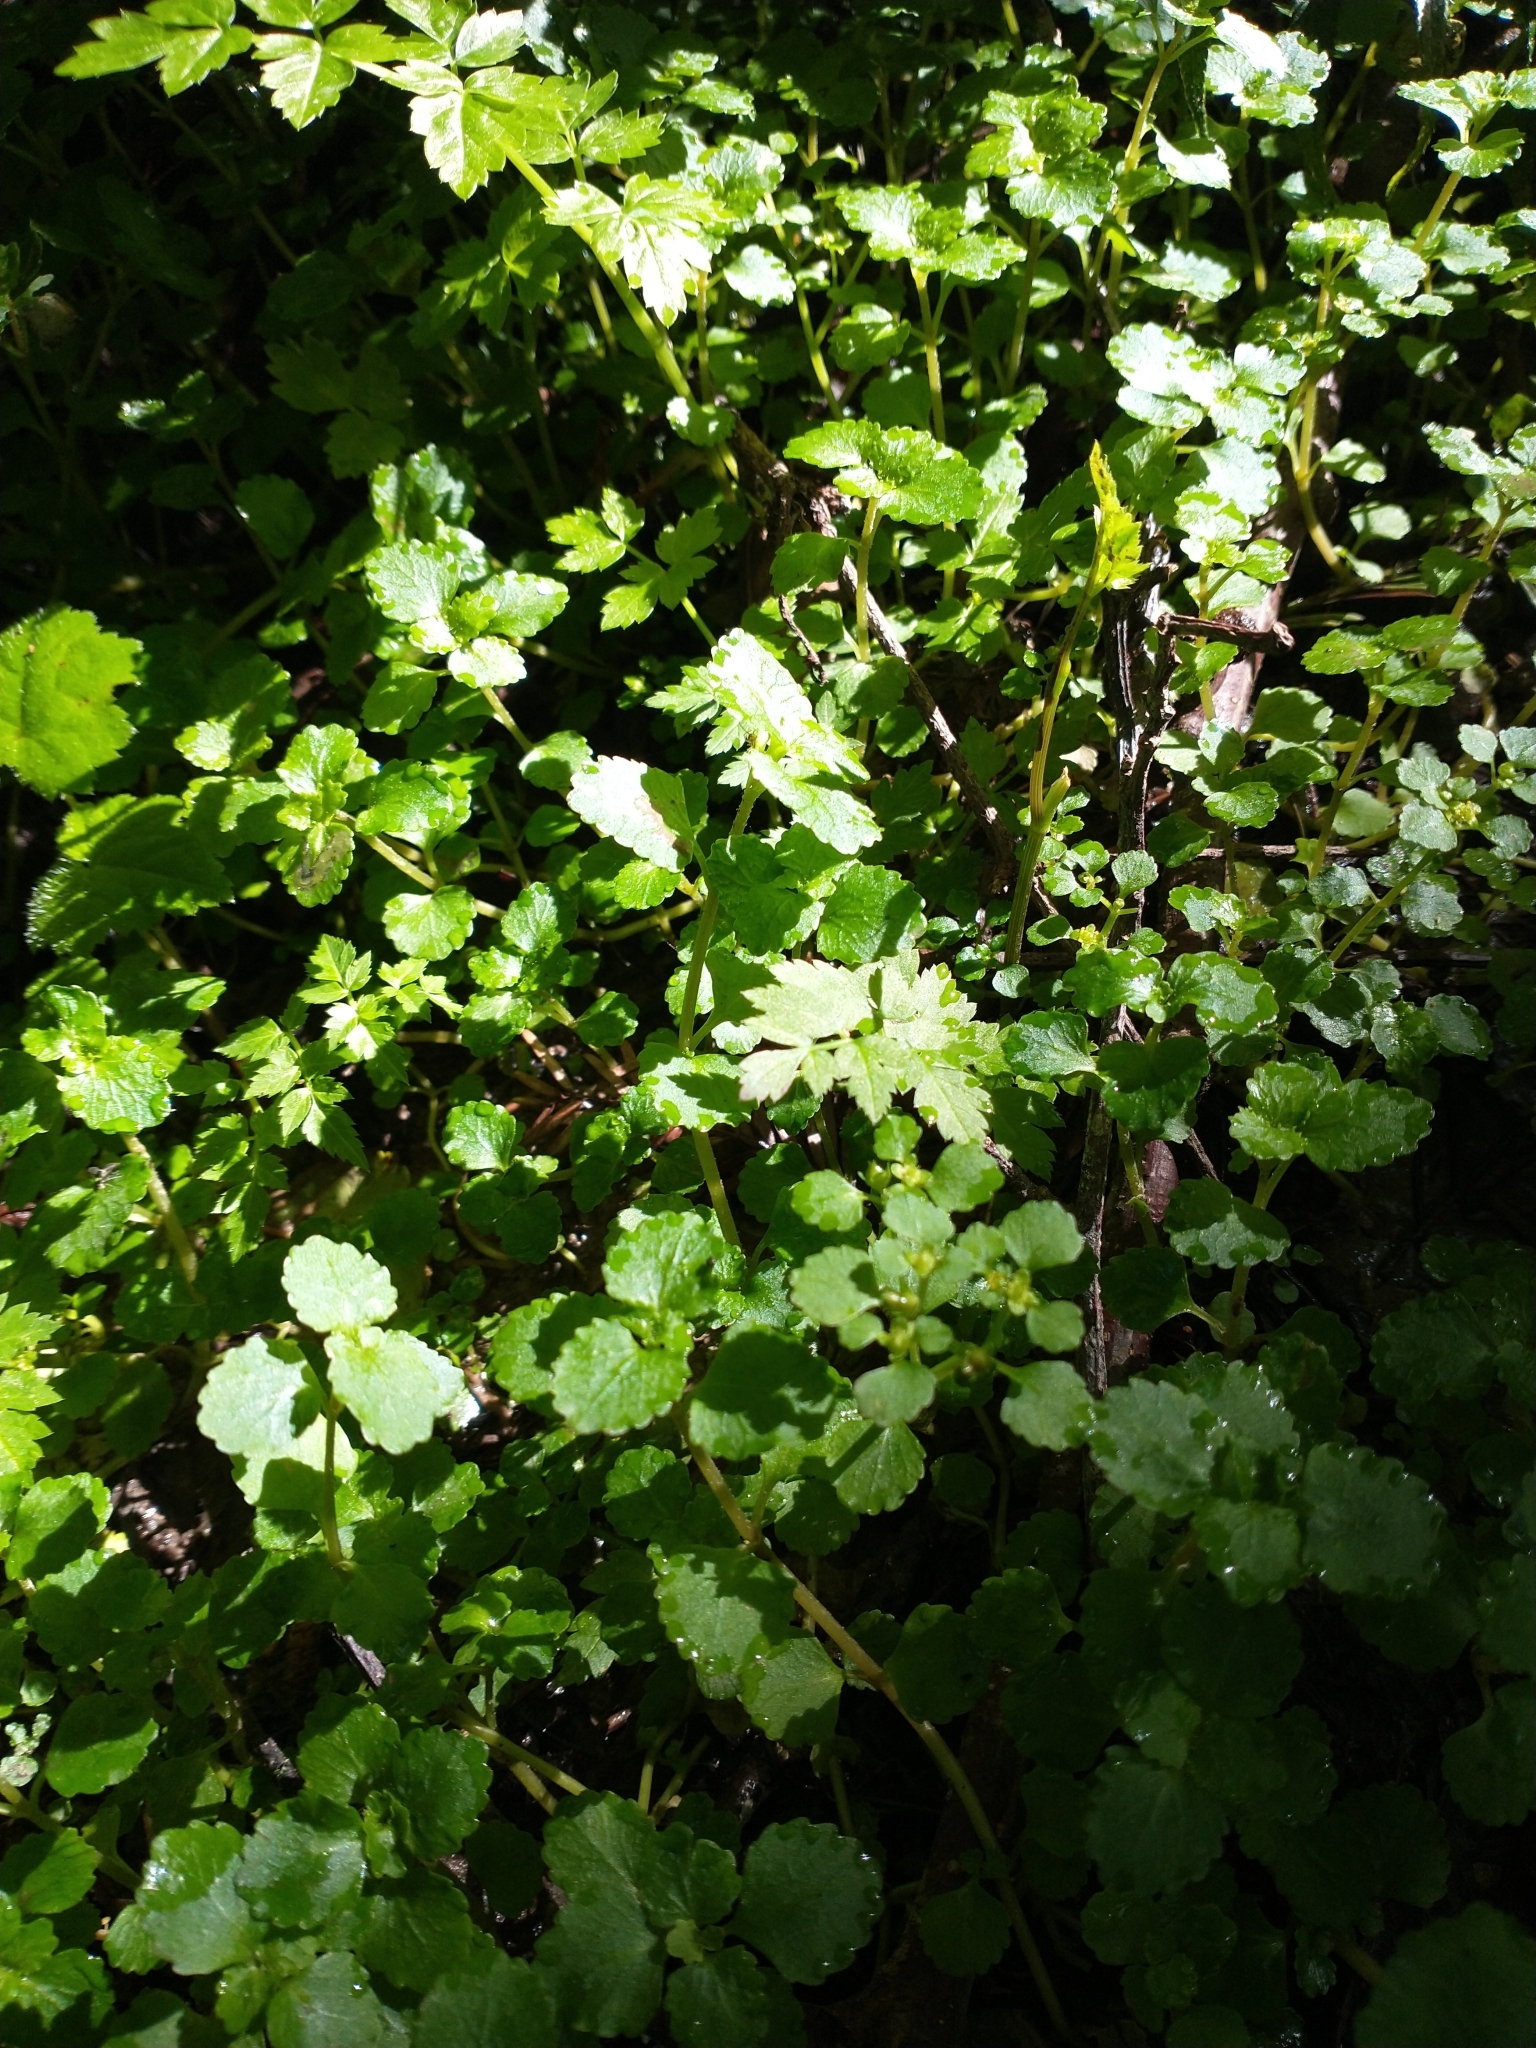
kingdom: Plantae
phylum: Tracheophyta
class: Magnoliopsida
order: Saxifragales
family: Saxifragaceae
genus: Chrysosplenium
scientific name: Chrysosplenium glechomifolium
